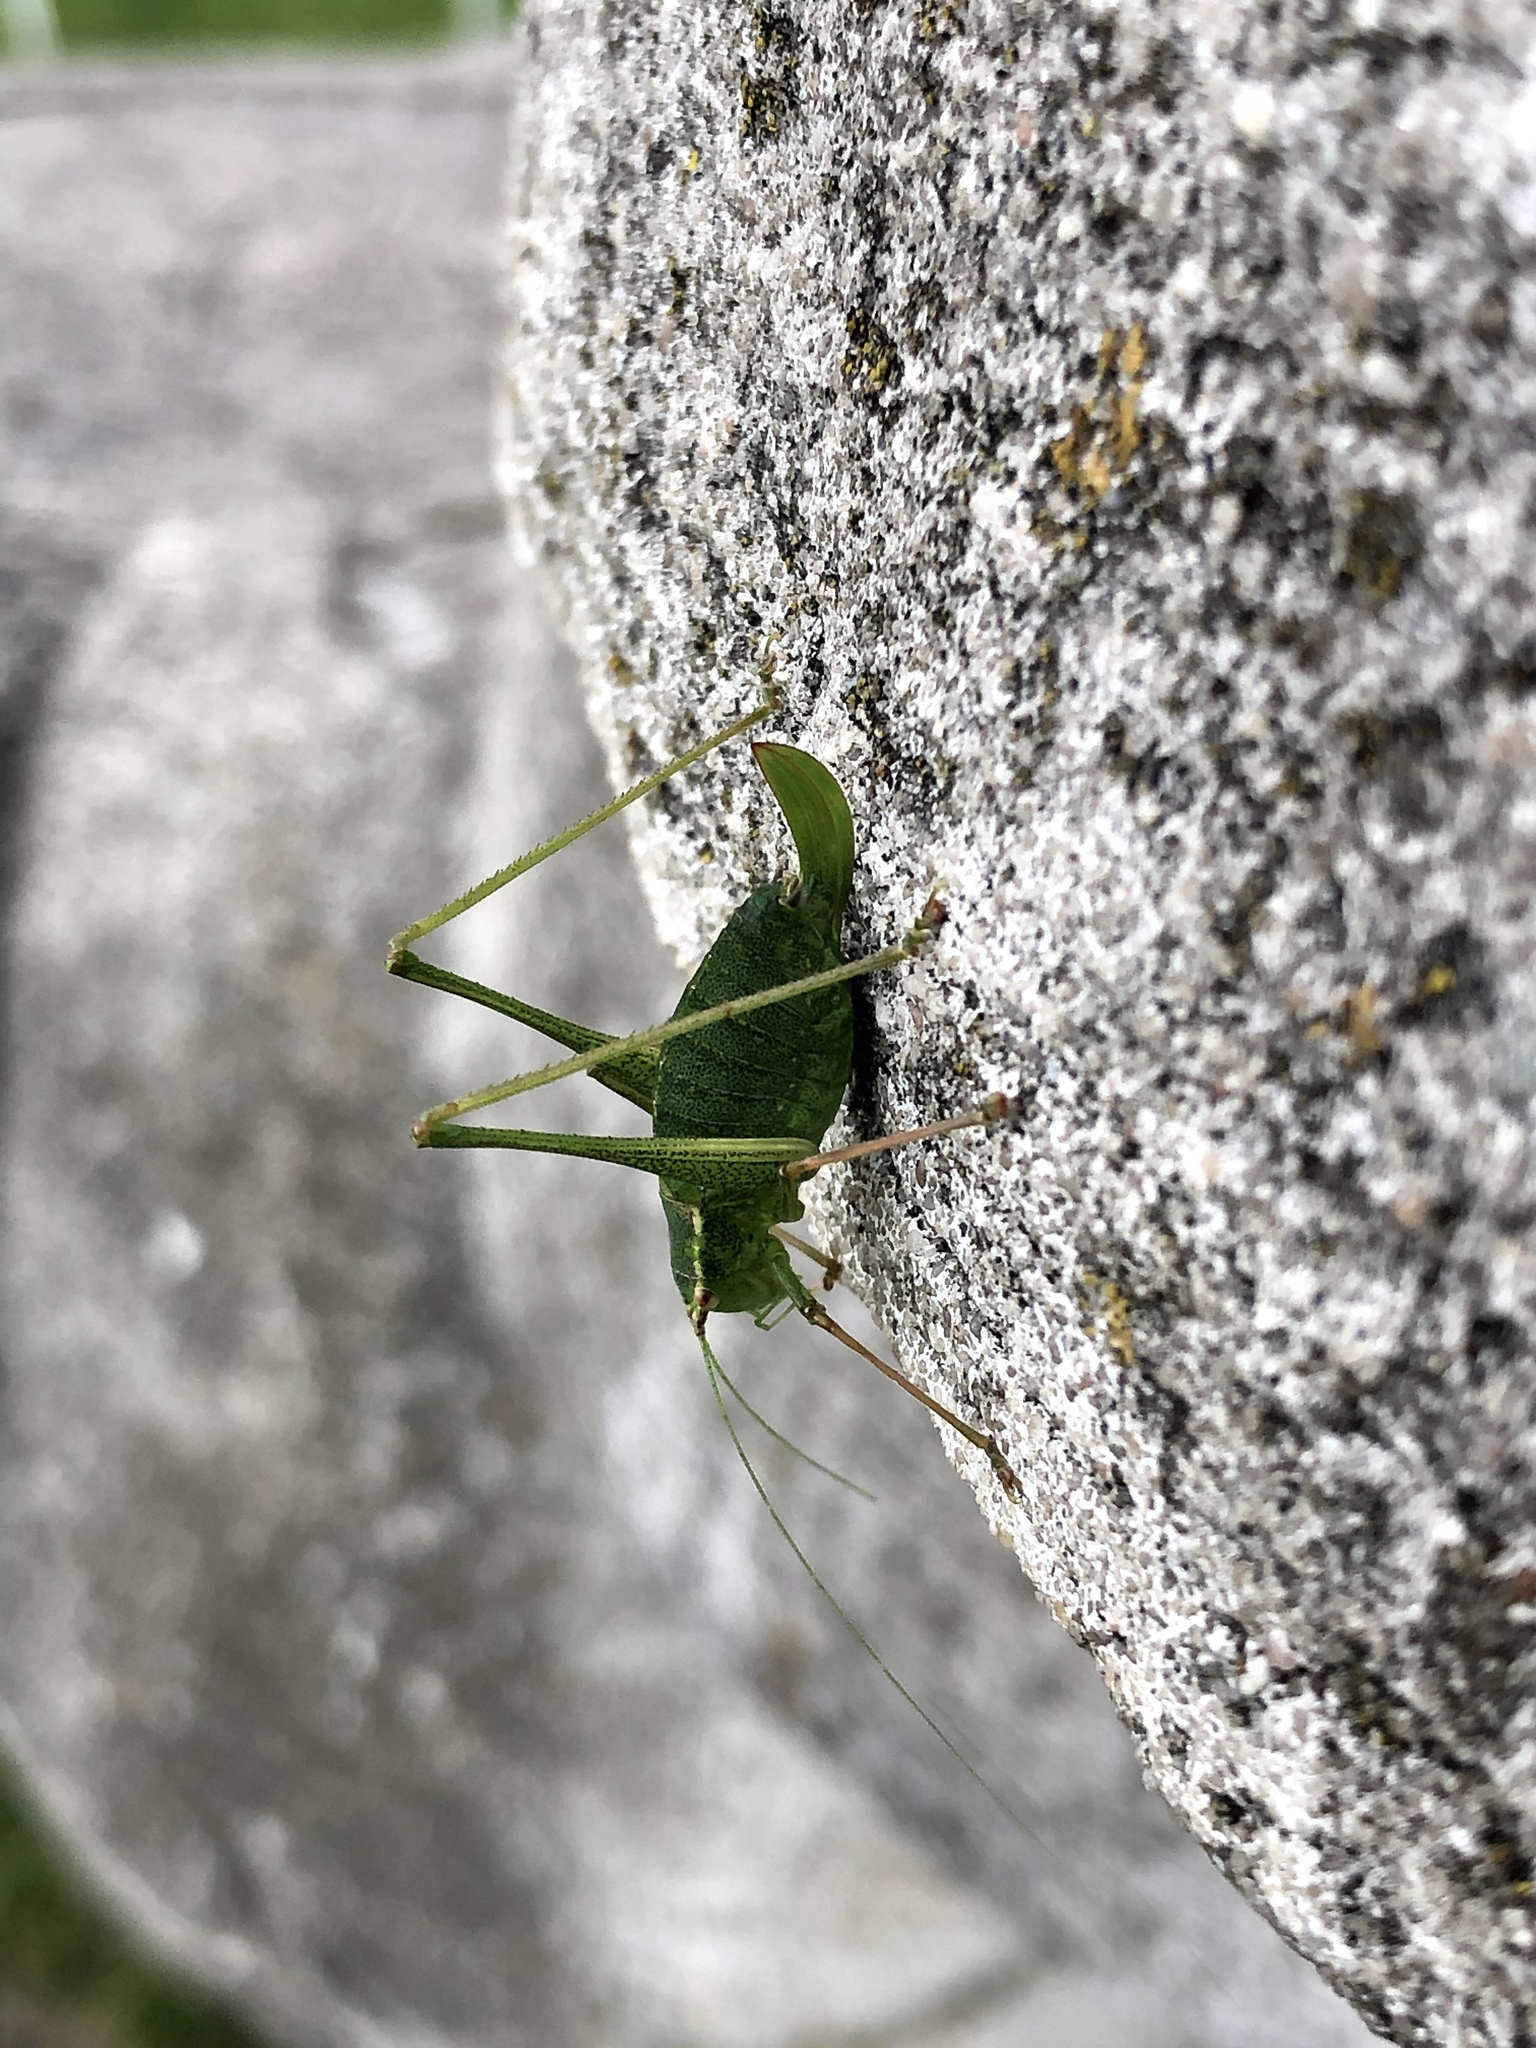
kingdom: Animalia
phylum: Arthropoda
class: Insecta
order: Orthoptera
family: Tettigoniidae
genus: Leptophyes
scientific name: Leptophyes punctatissima
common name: Speckled bush-cricket
